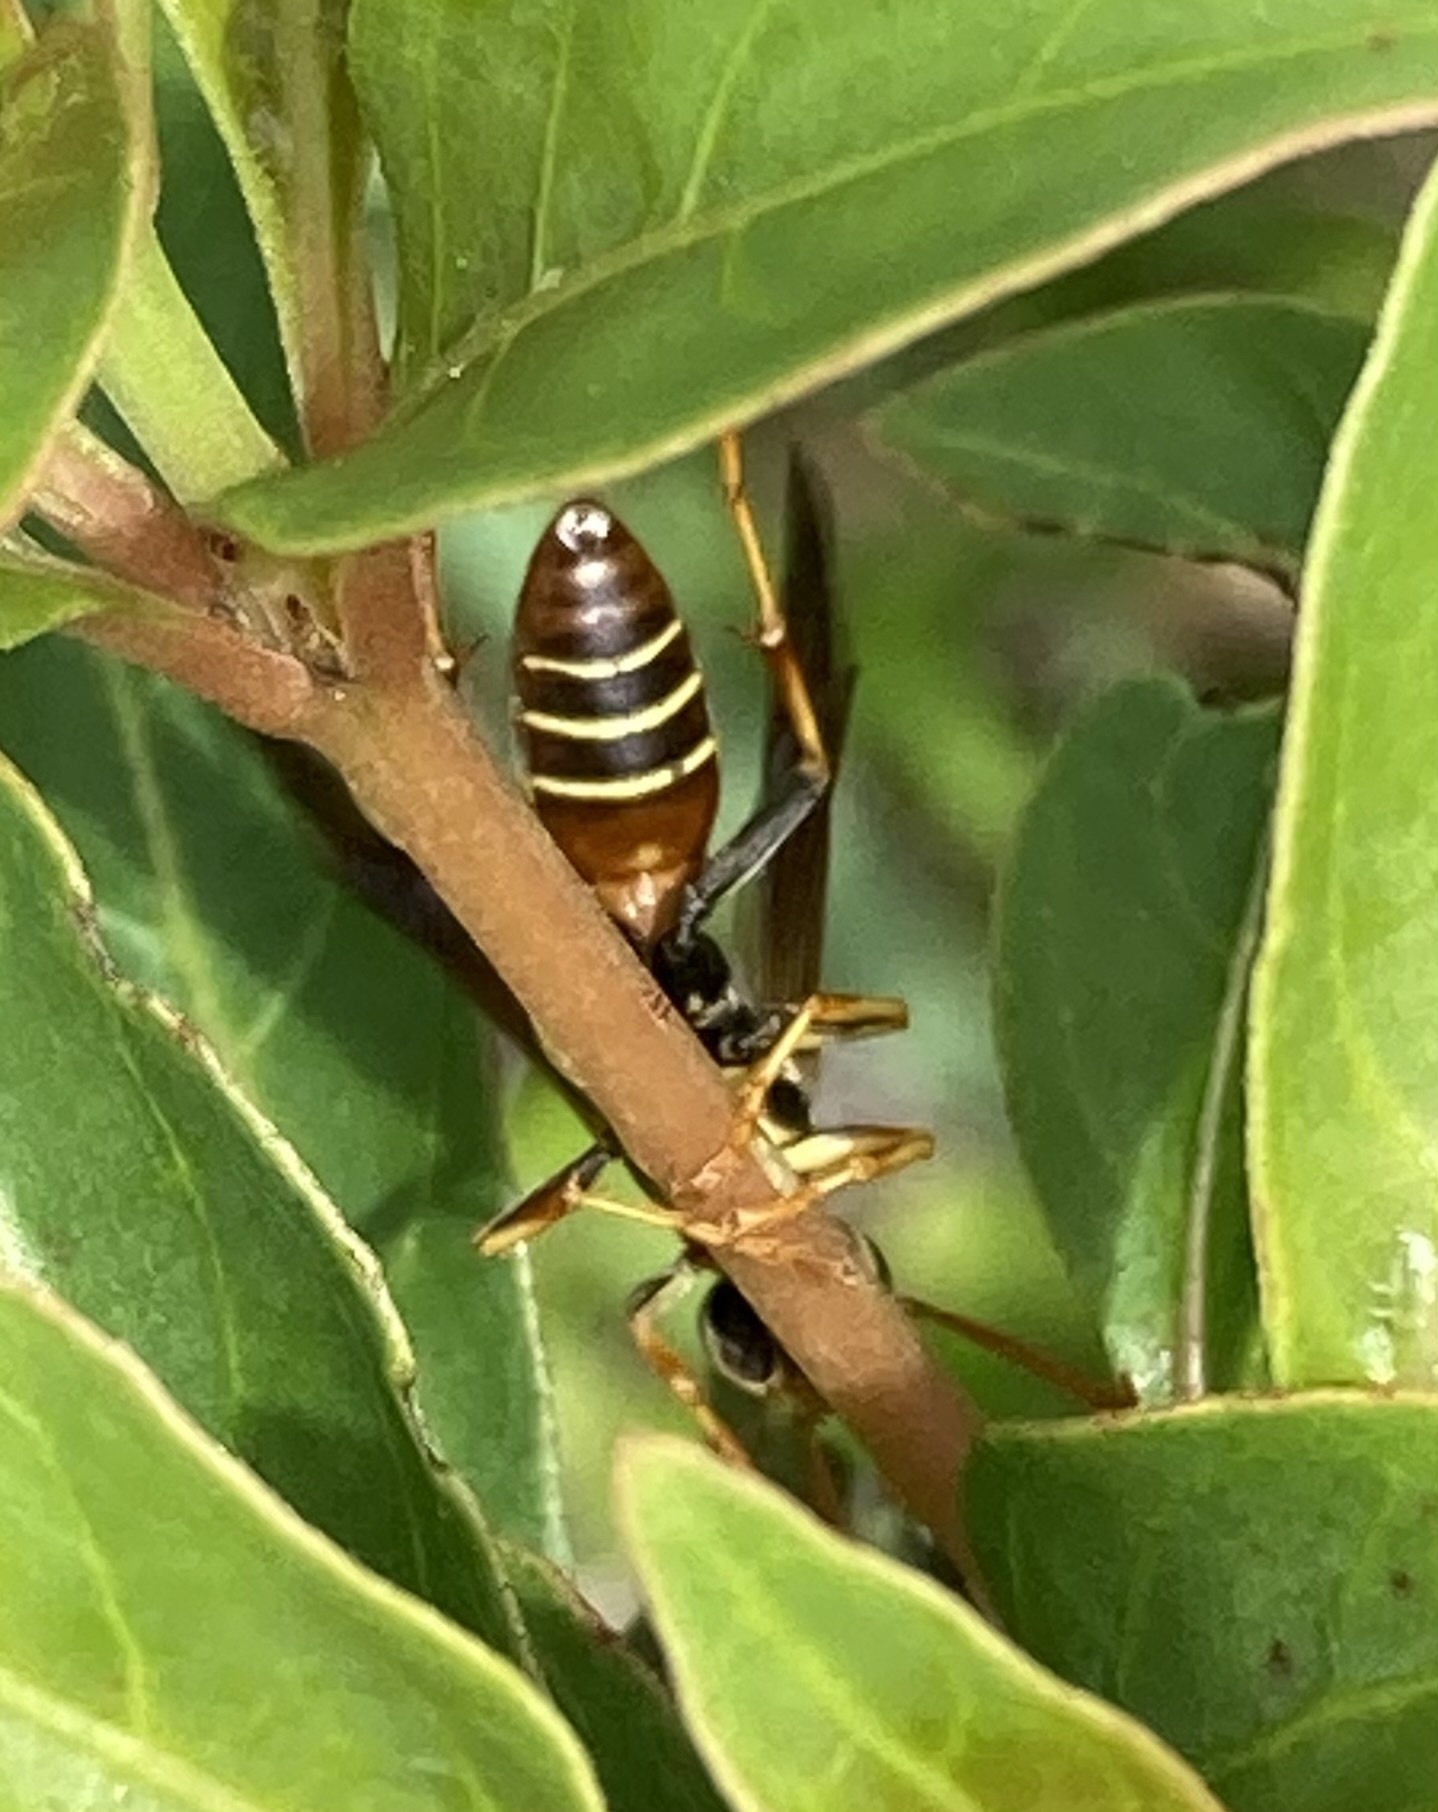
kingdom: Animalia
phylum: Arthropoda
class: Insecta
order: Hymenoptera
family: Eumenidae
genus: Polistes
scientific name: Polistes dorsalis
